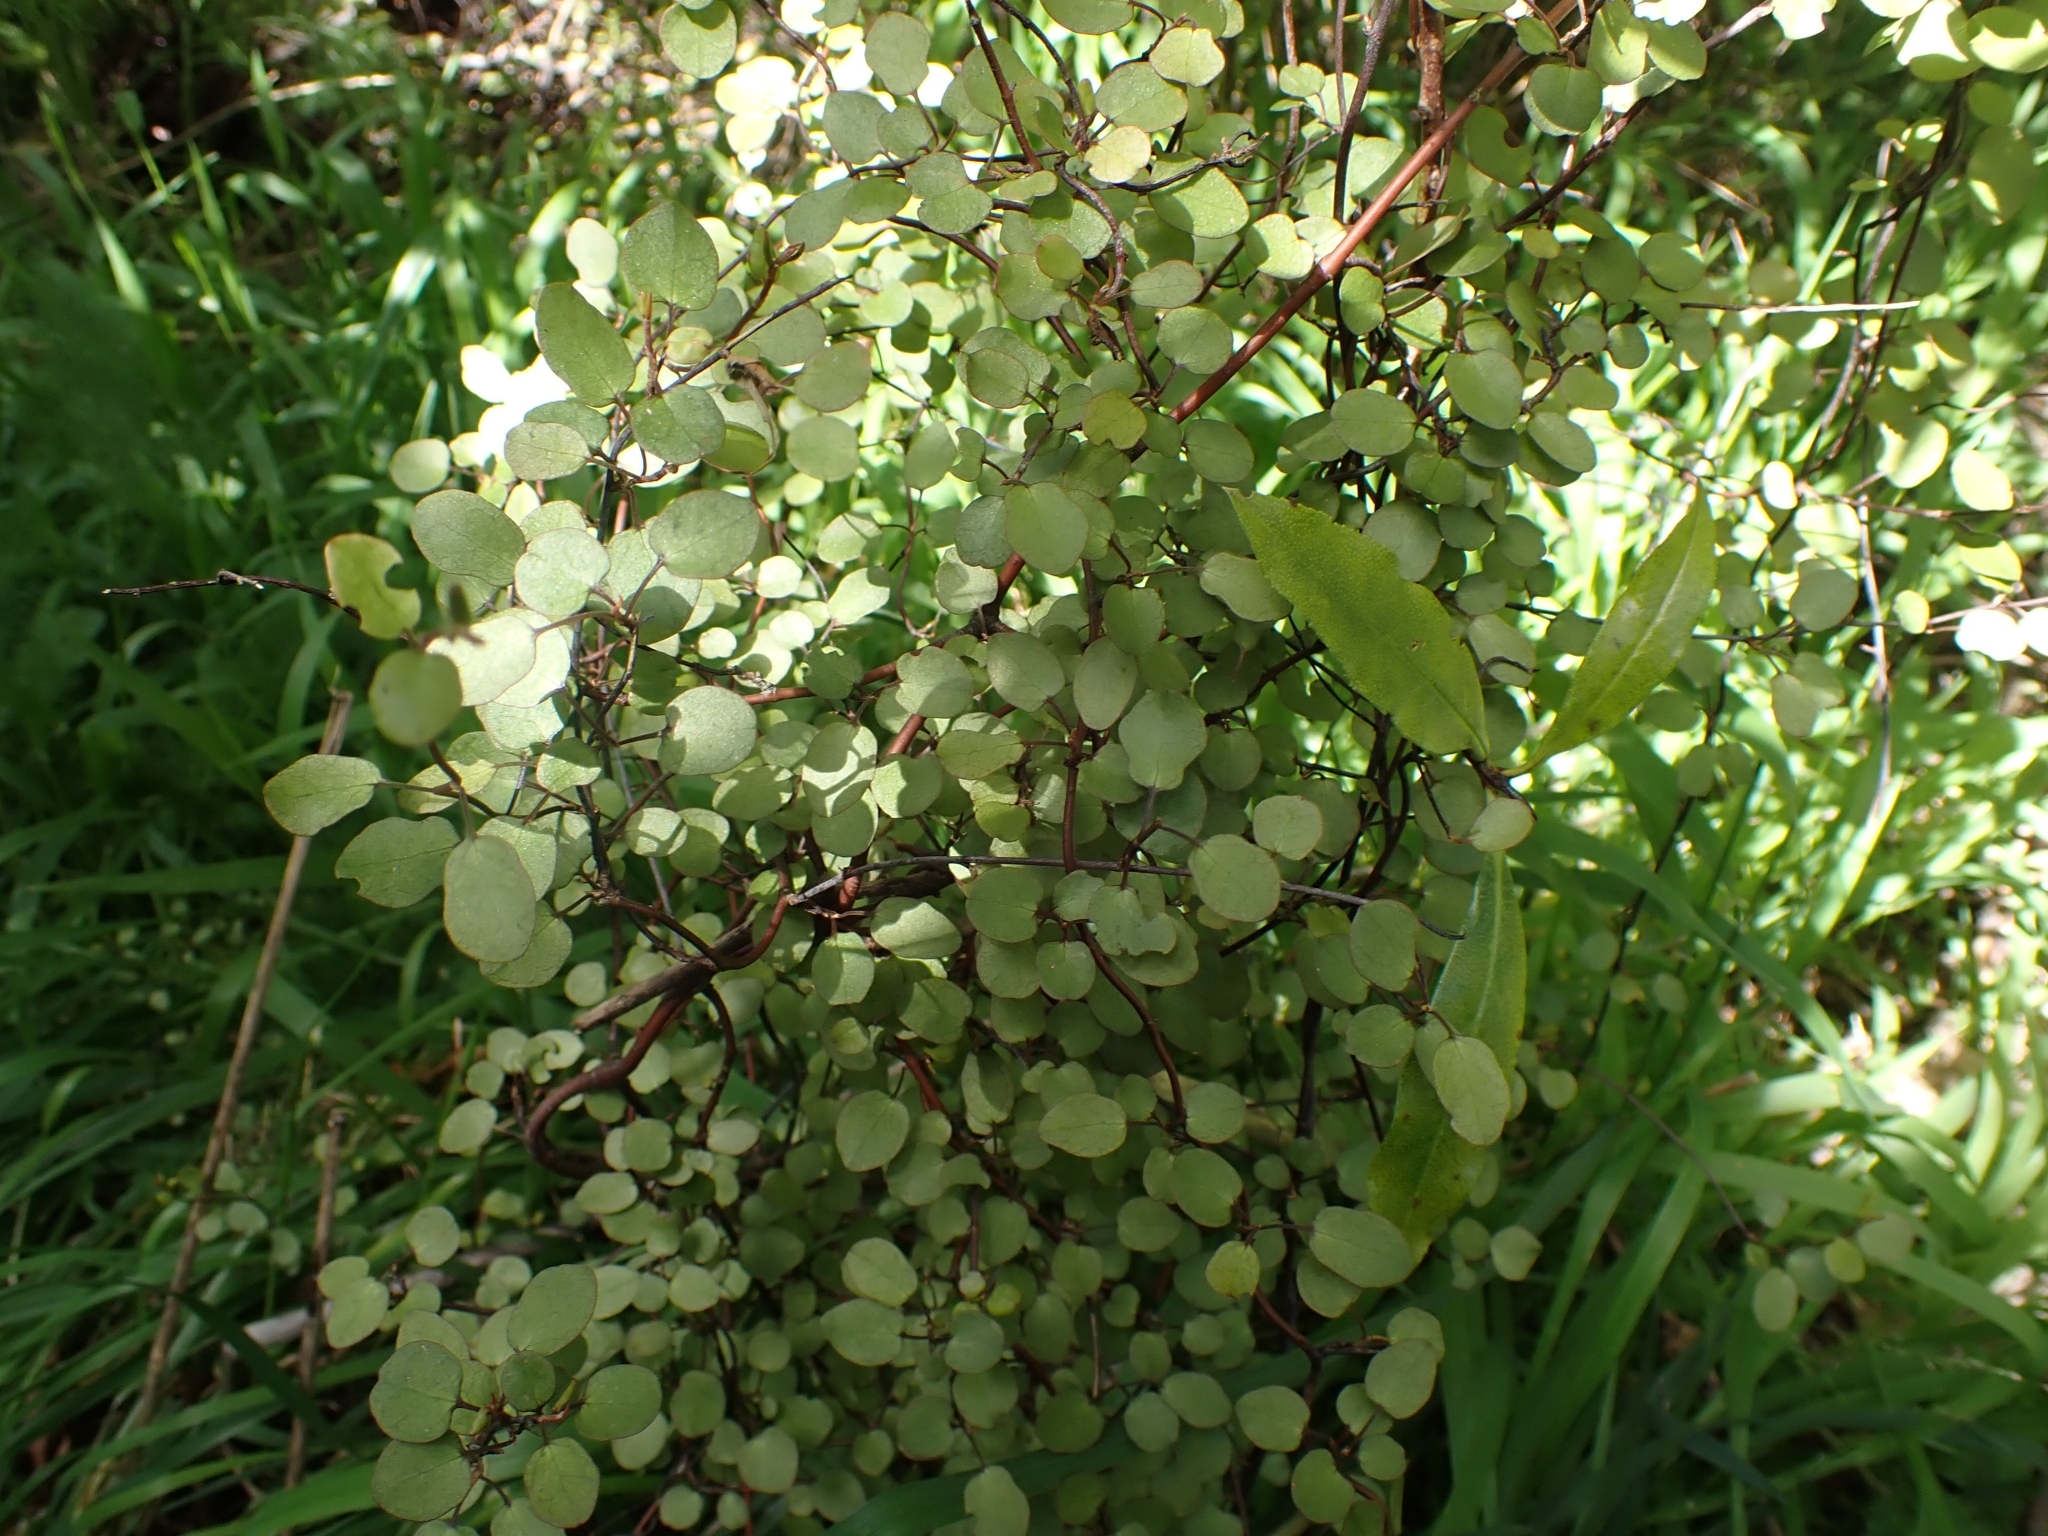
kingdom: Plantae
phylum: Tracheophyta
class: Magnoliopsida
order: Caryophyllales
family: Polygonaceae
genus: Muehlenbeckia
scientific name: Muehlenbeckia complexa
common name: Wireplant
